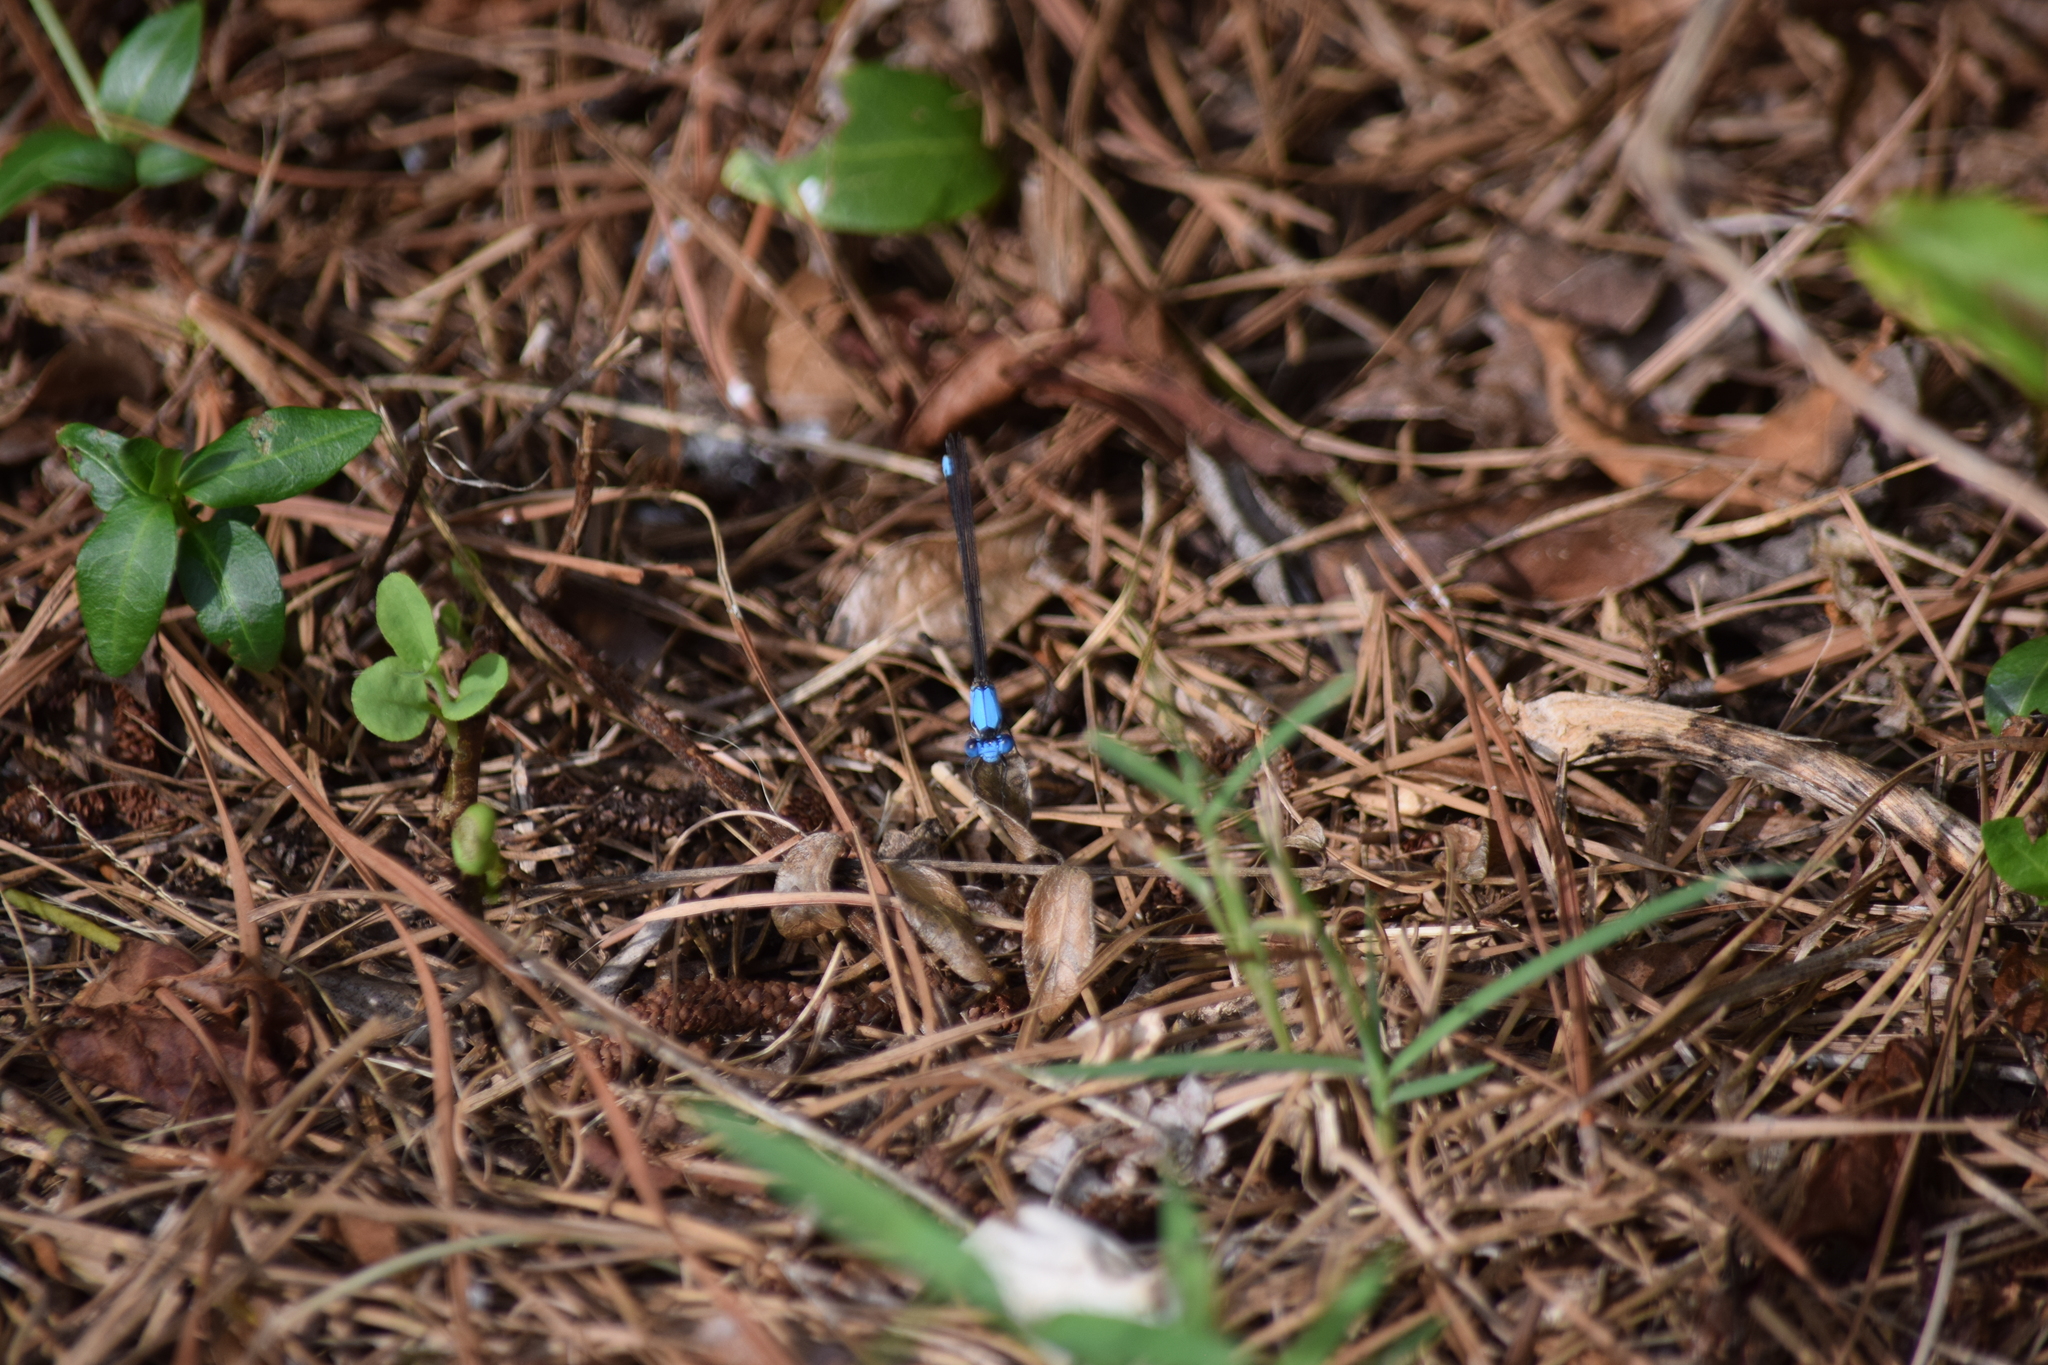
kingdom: Animalia
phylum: Arthropoda
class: Insecta
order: Odonata
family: Coenagrionidae
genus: Argia
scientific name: Argia apicalis
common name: Blue-fronted dancer
